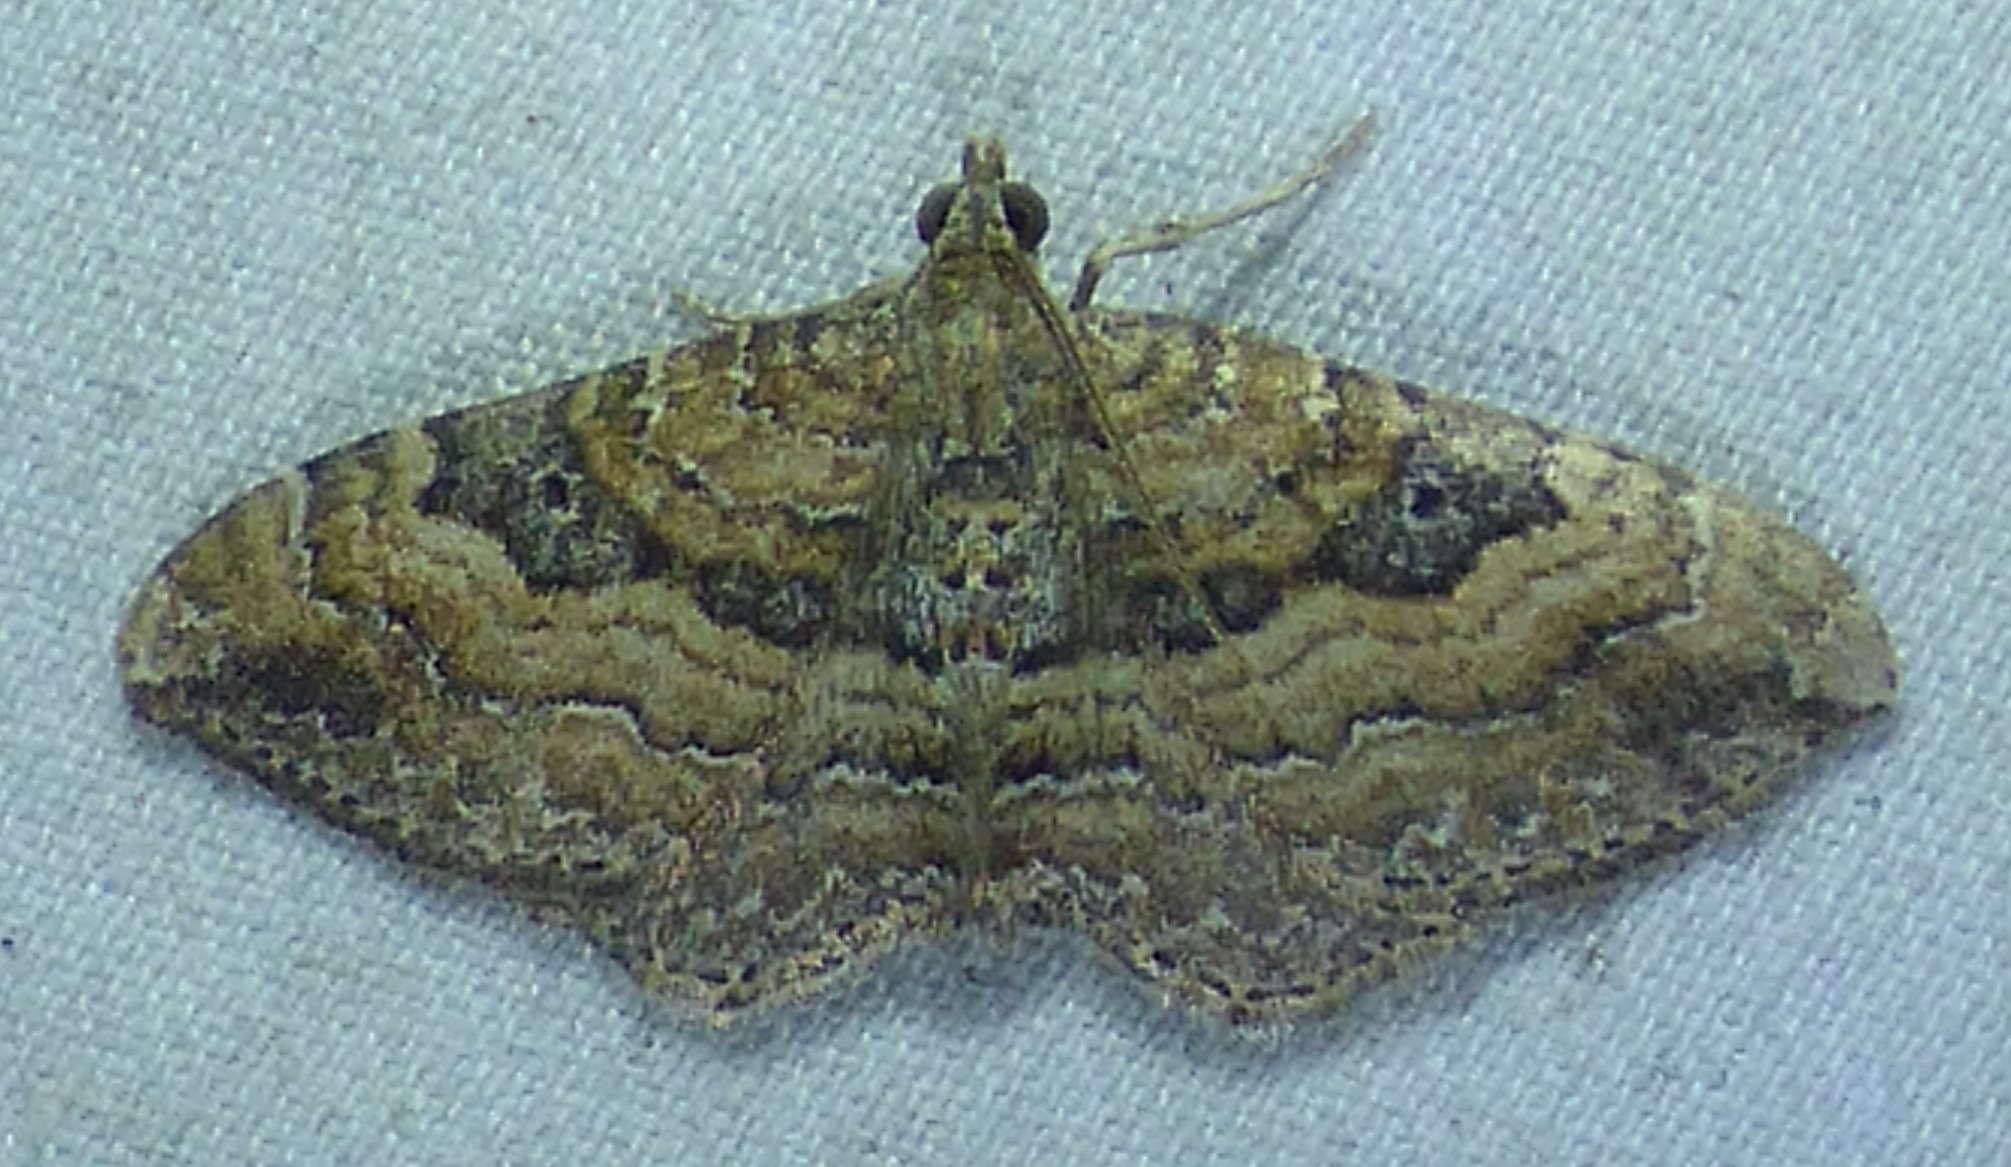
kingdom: Animalia
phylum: Arthropoda
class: Insecta
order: Lepidoptera
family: Geometridae
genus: Orthonama
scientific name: Orthonama obstipata
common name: The gem
